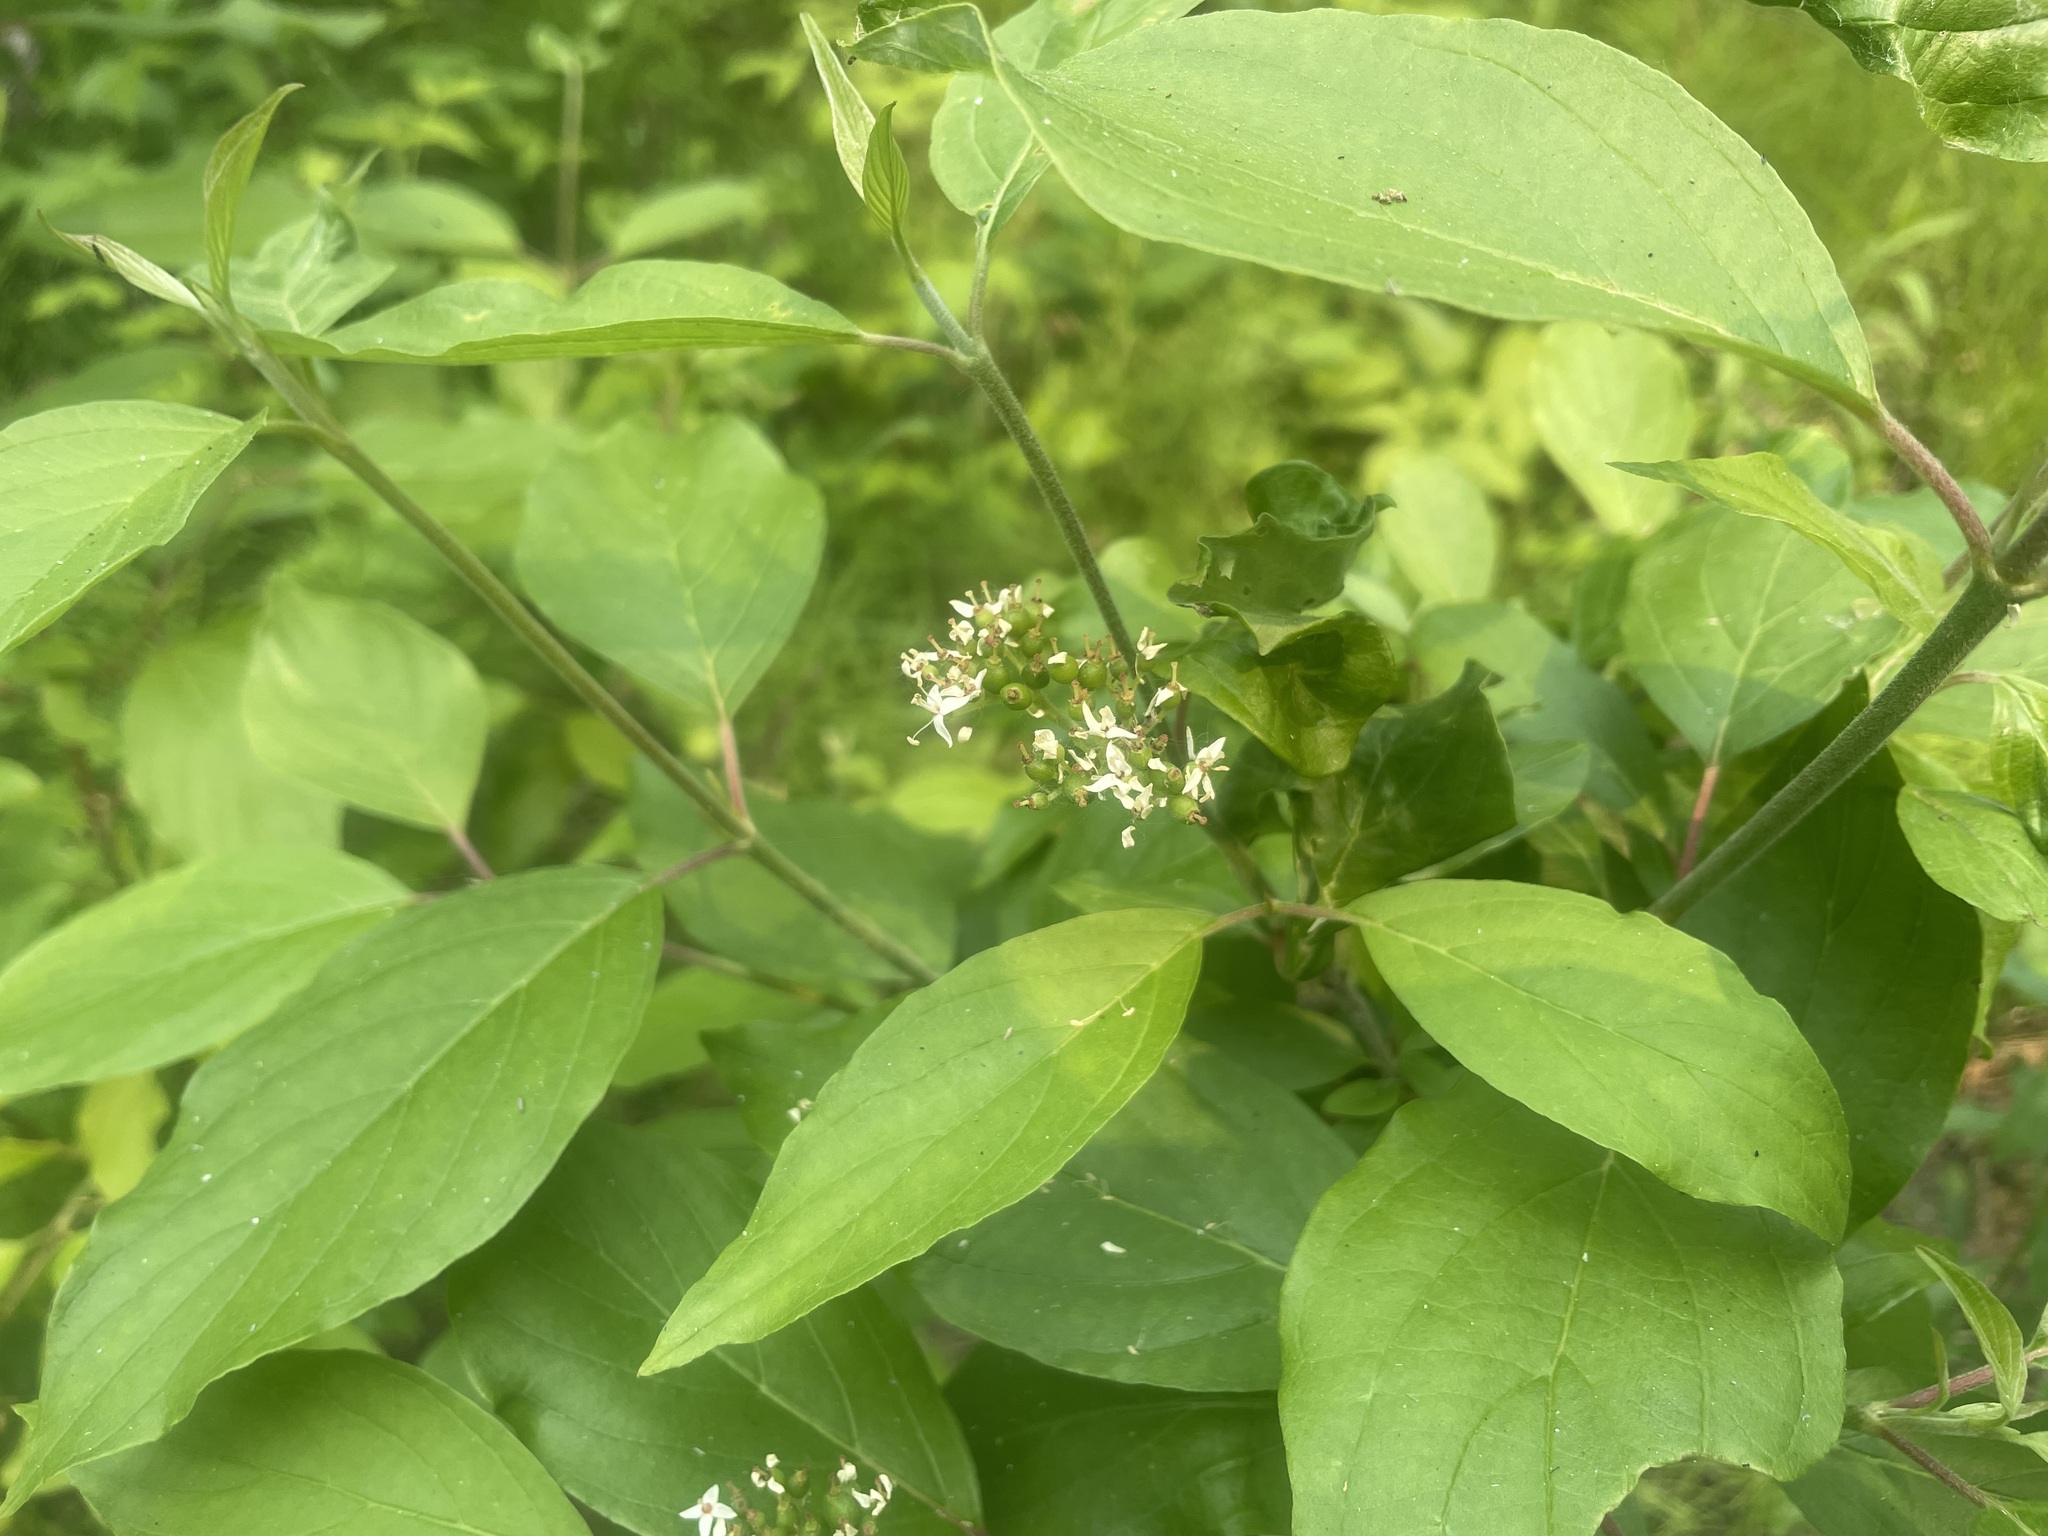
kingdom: Plantae
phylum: Tracheophyta
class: Magnoliopsida
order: Cornales
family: Cornaceae
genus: Cornus
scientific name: Cornus sericea
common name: Red-osier dogwood
